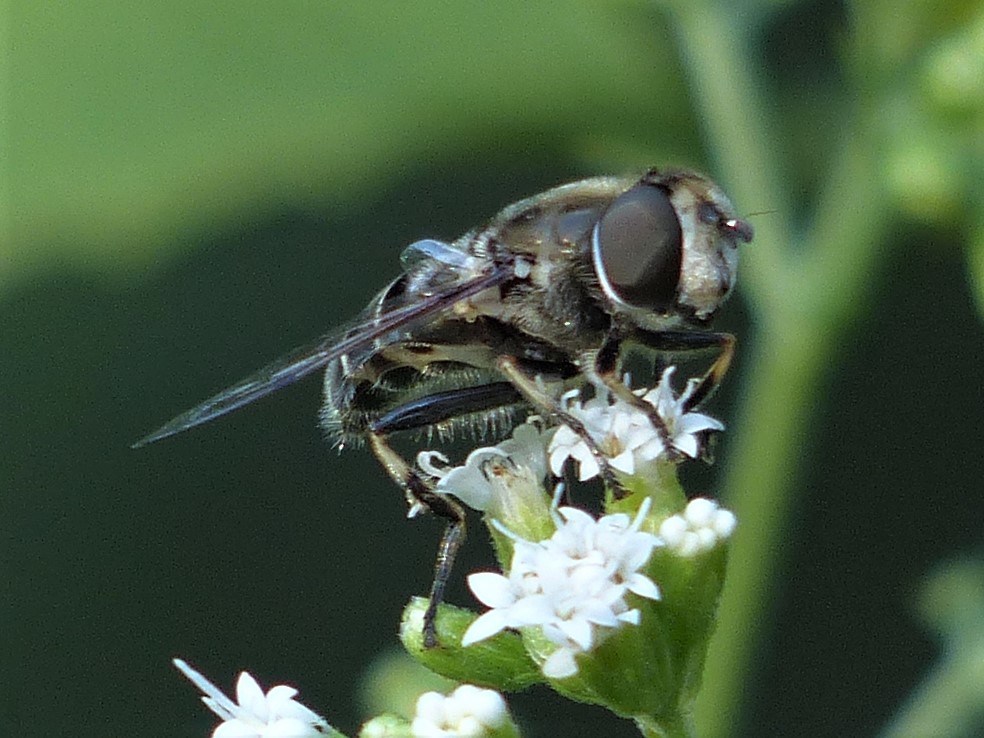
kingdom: Animalia
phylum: Arthropoda
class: Insecta
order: Diptera
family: Syrphidae
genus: Eristalis
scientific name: Eristalis dimidiata
